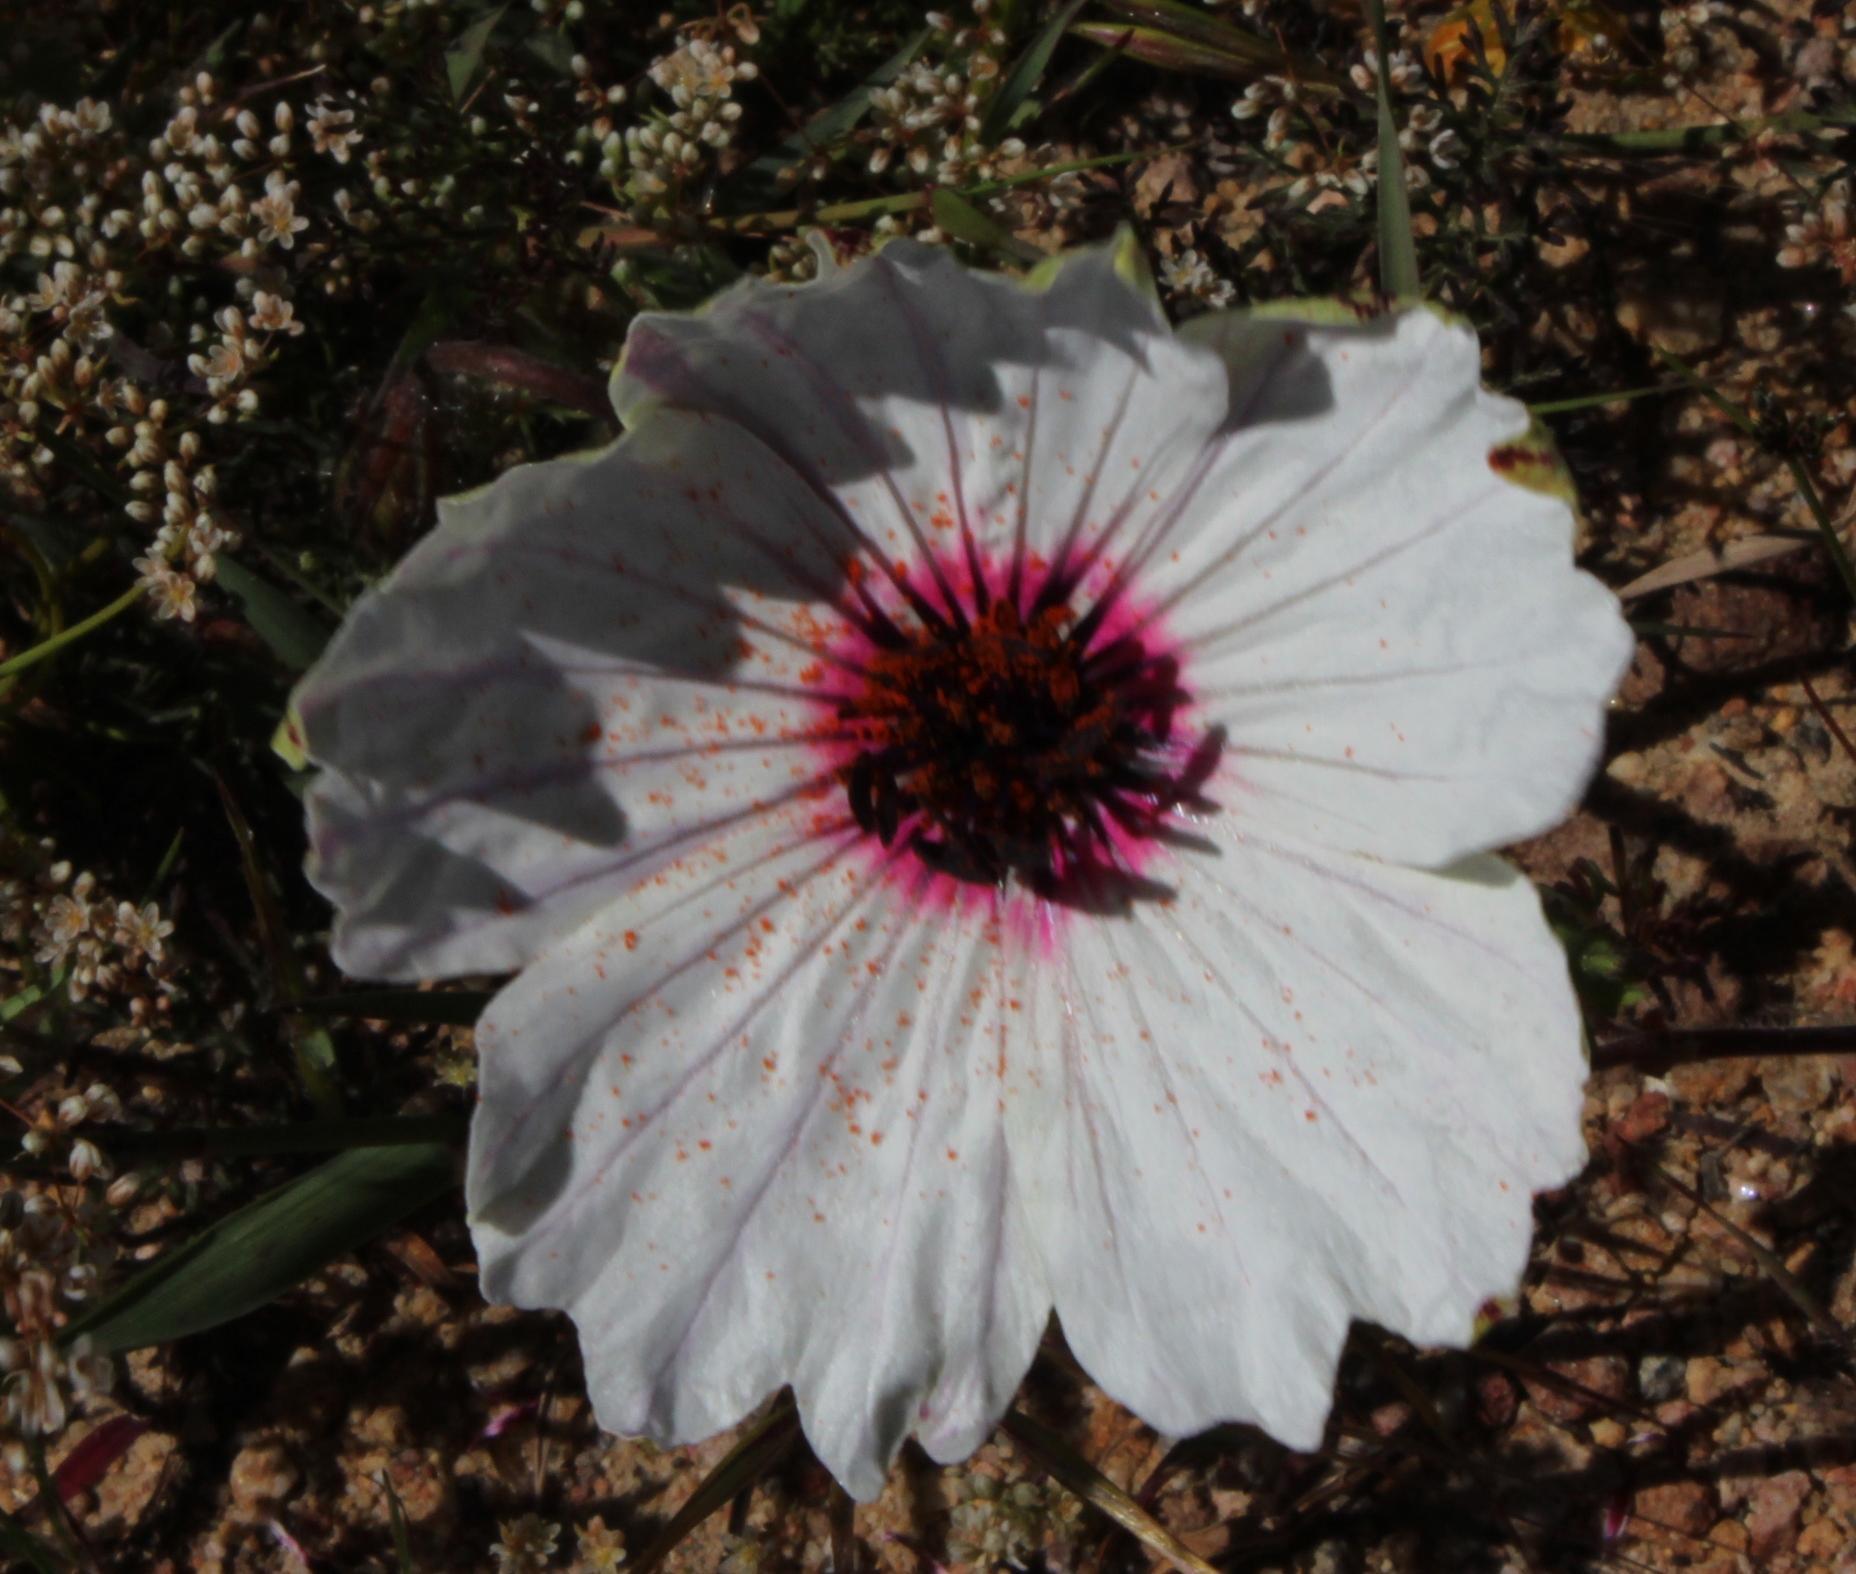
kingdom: Plantae
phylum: Tracheophyta
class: Magnoliopsida
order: Geraniales
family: Geraniaceae
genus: Monsonia
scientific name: Monsonia speciosa
